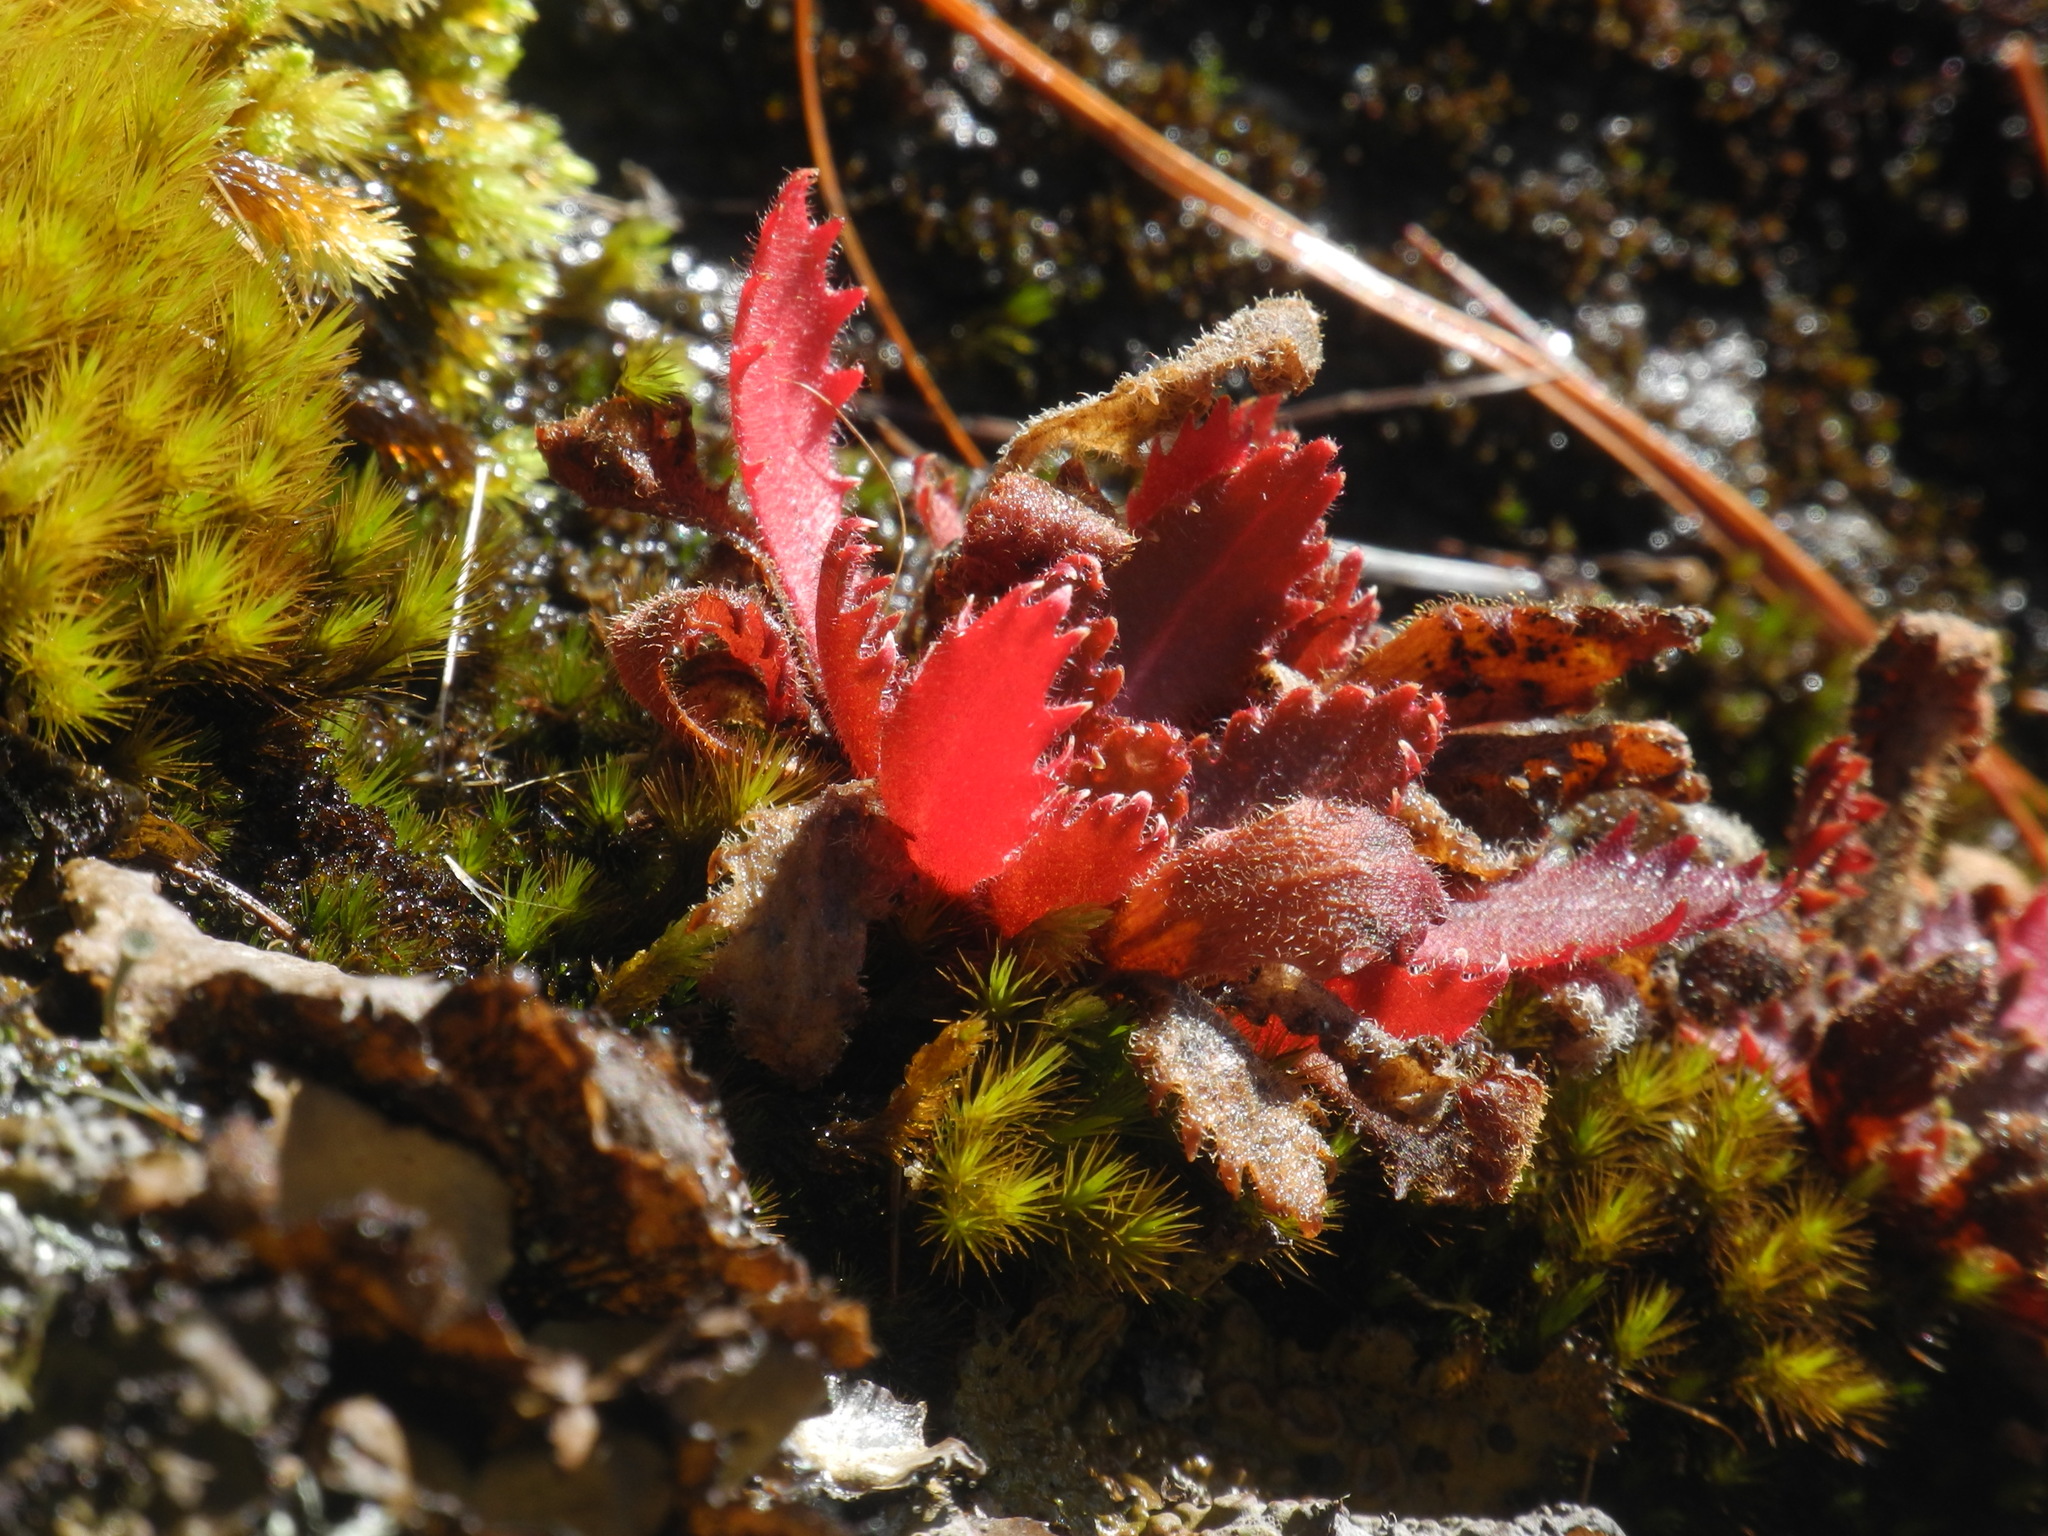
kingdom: Plantae
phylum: Tracheophyta
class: Magnoliopsida
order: Saxifragales
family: Saxifragaceae
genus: Micranthes
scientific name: Micranthes petiolaris
